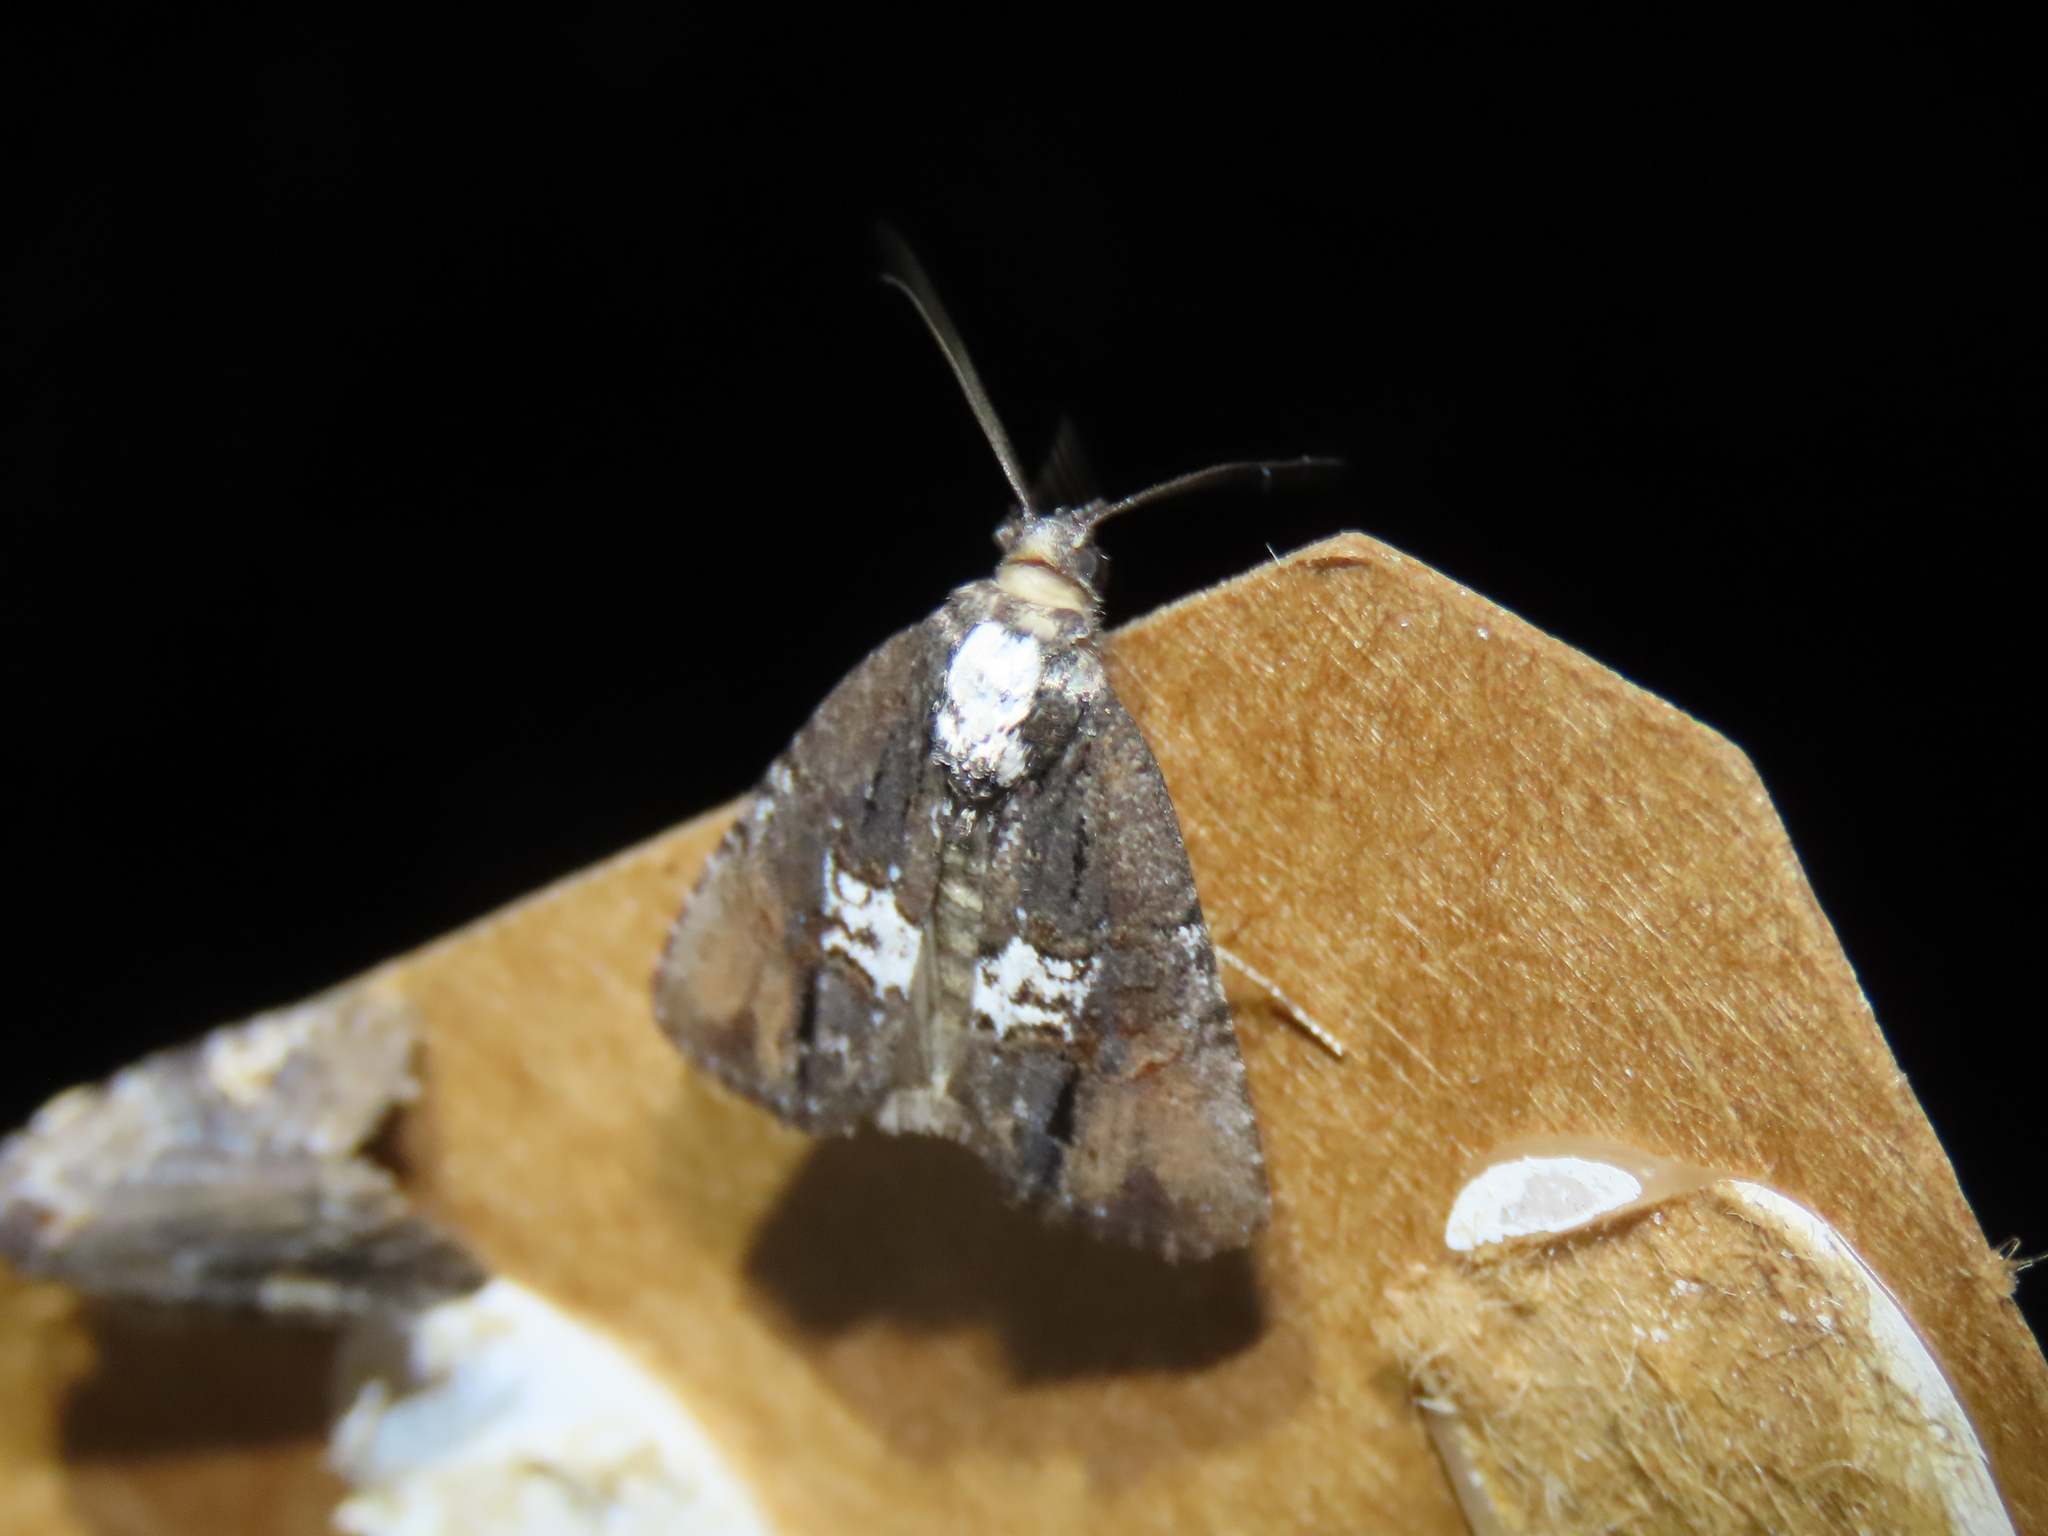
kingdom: Animalia
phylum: Arthropoda
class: Insecta
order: Lepidoptera
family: Noctuidae
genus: Bryolymnia
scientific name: Bryolymnia semifascia
